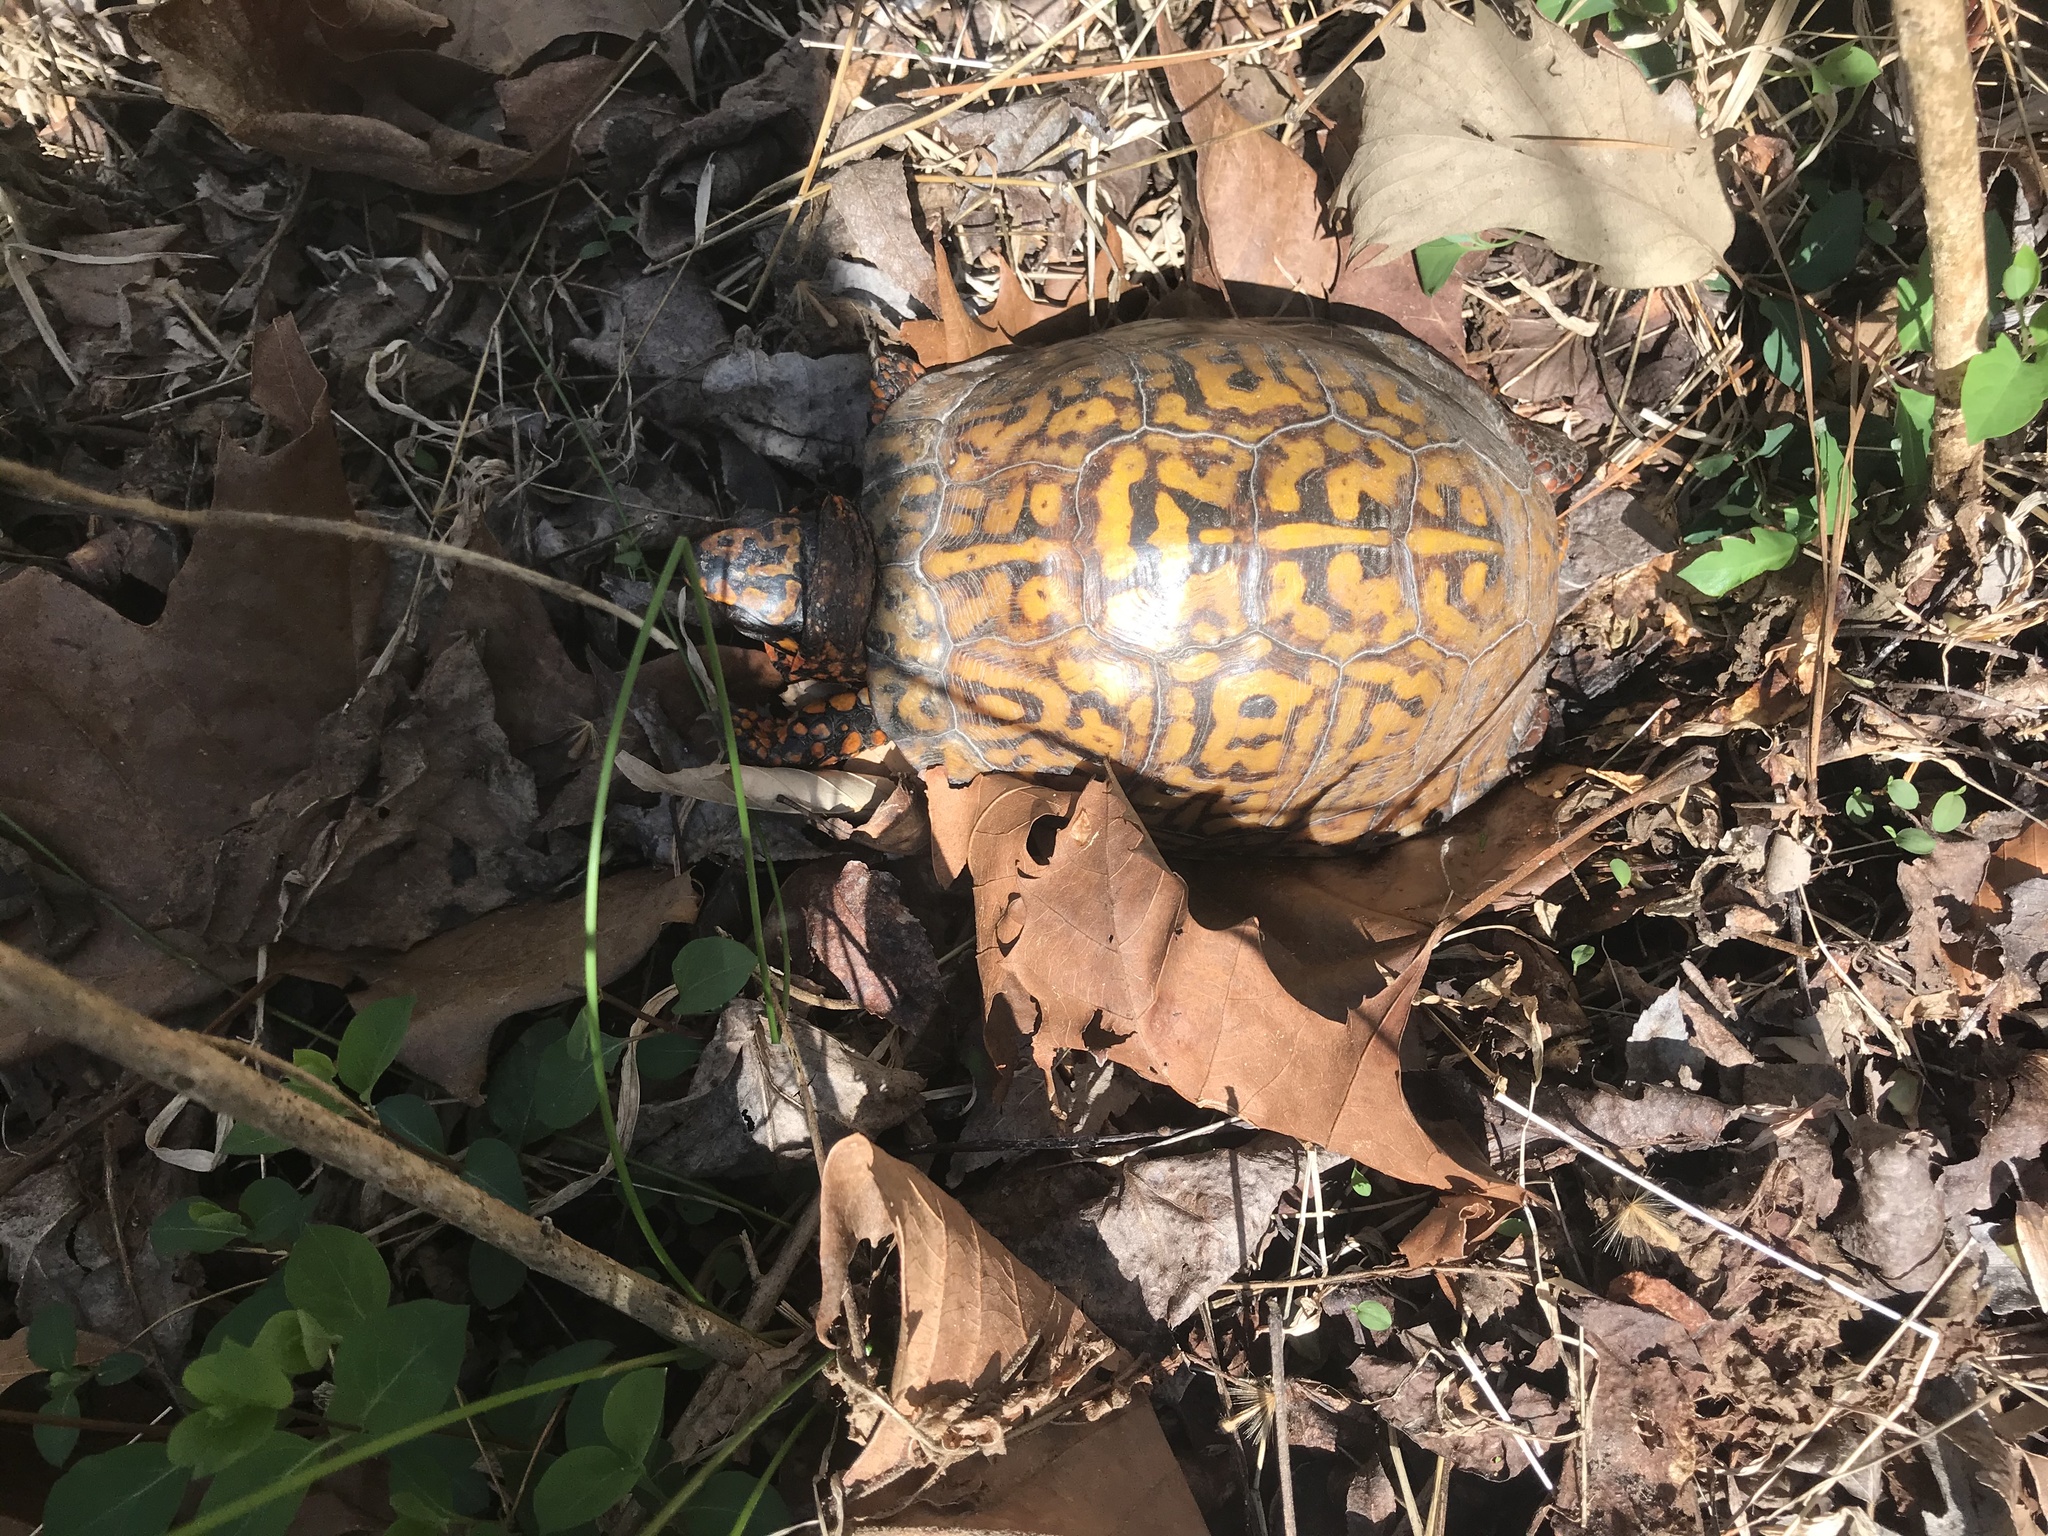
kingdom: Animalia
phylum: Chordata
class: Testudines
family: Emydidae
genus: Terrapene
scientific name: Terrapene carolina
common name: Common box turtle
